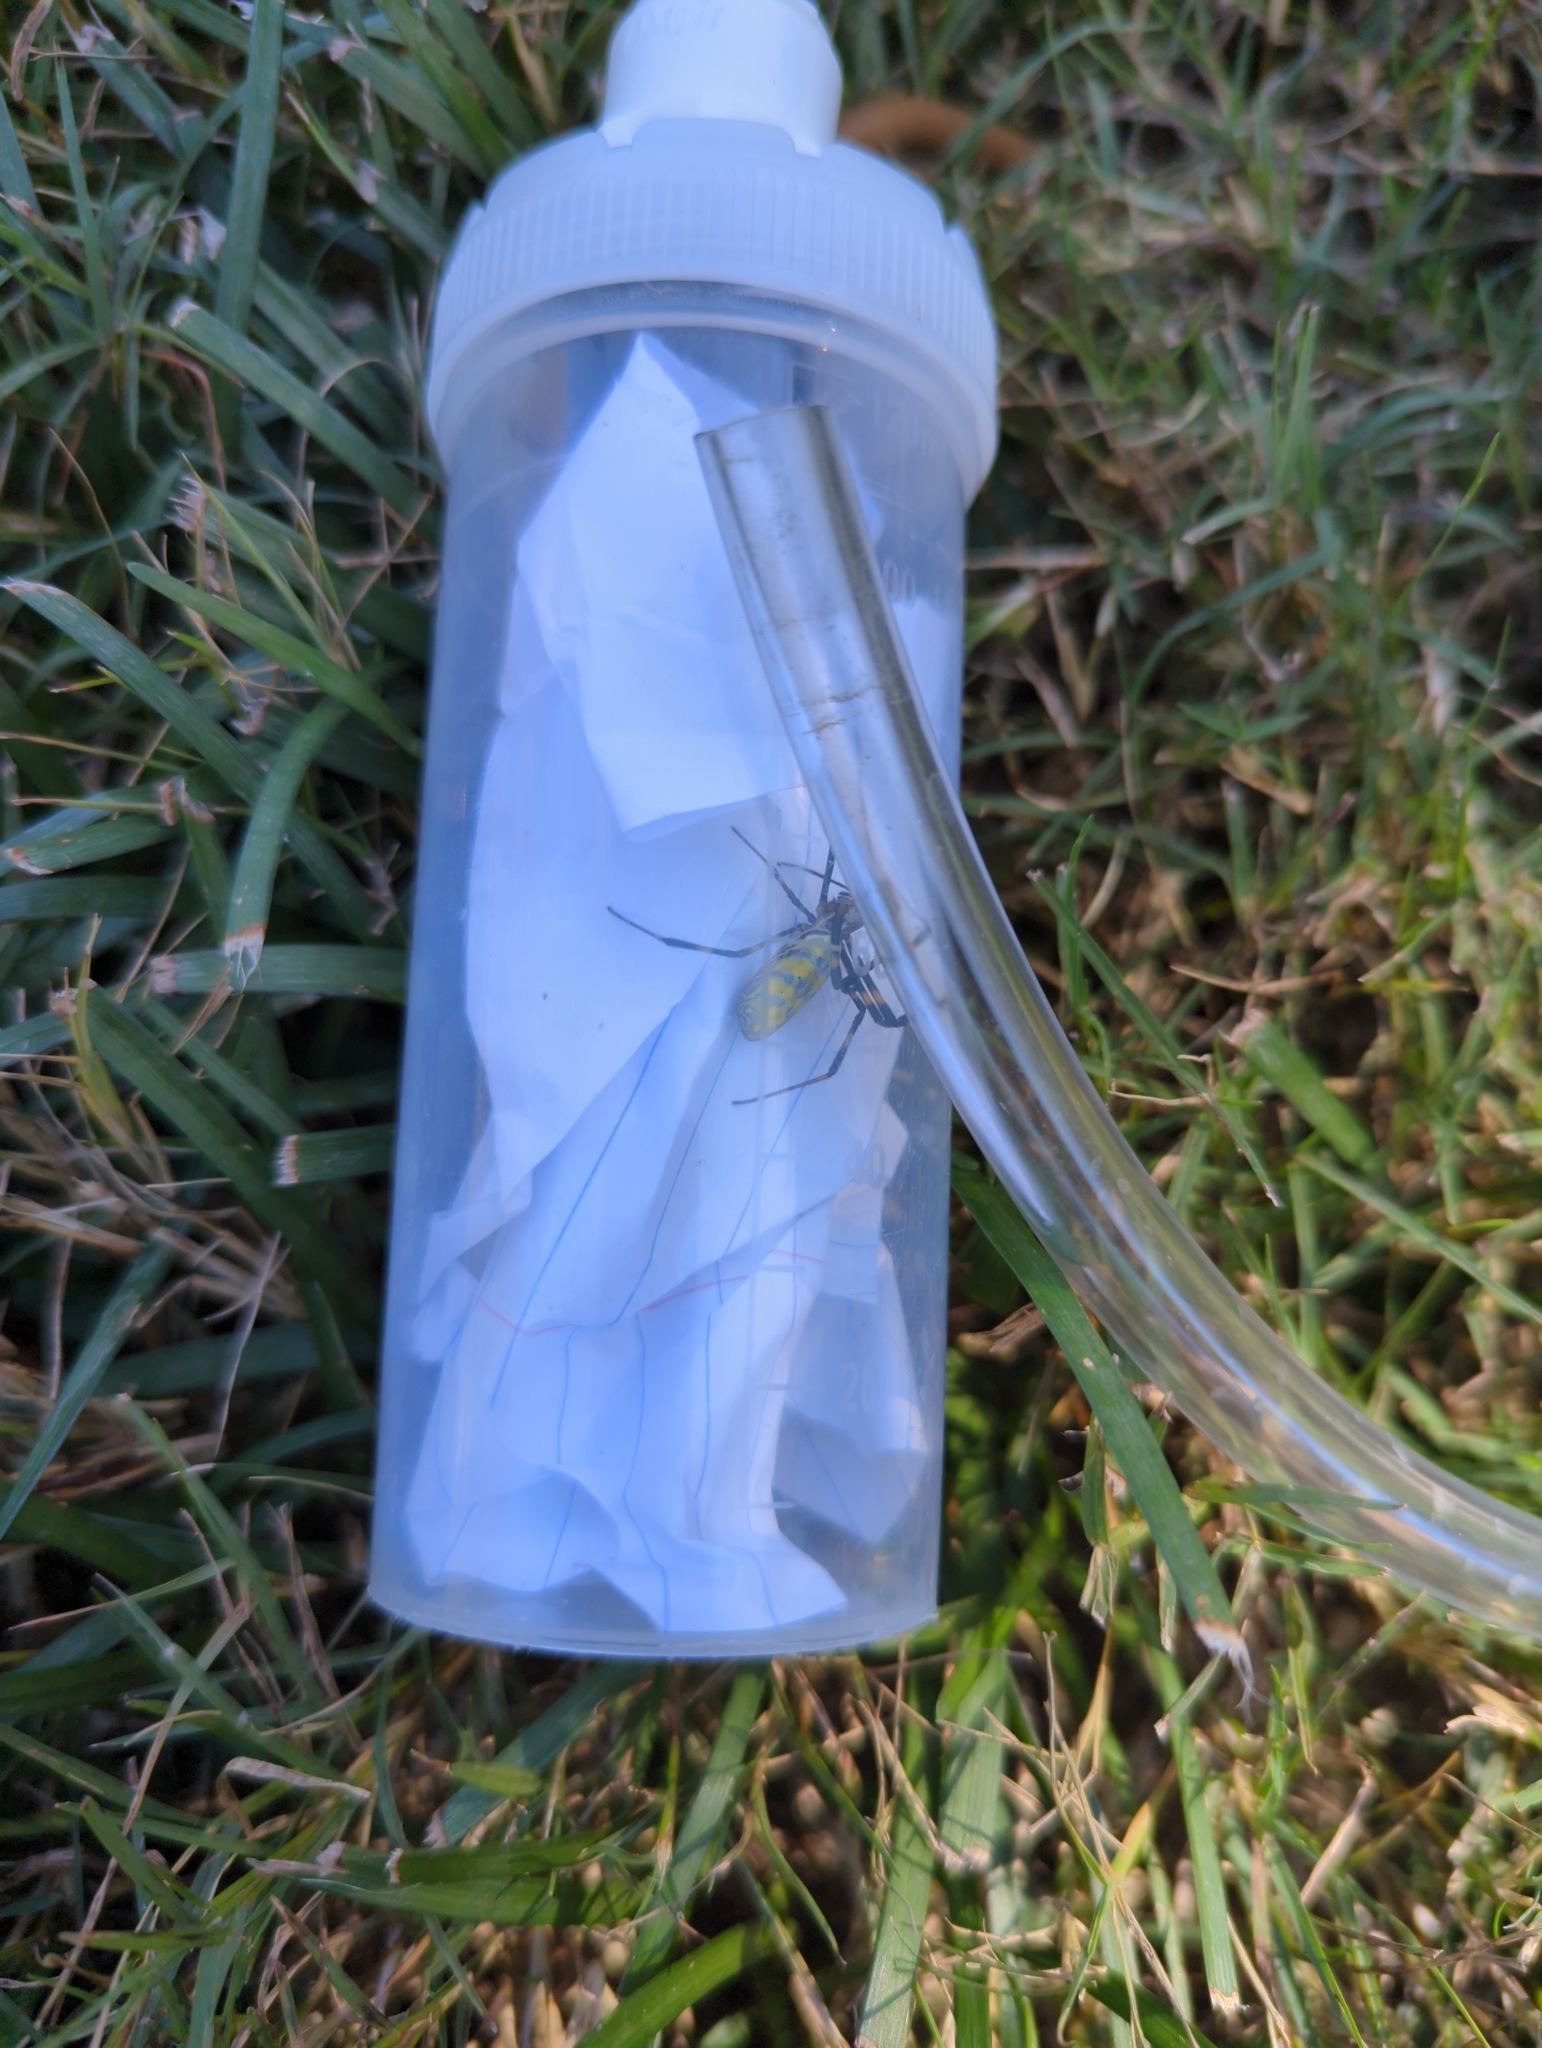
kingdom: Animalia
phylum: Arthropoda
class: Arachnida
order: Araneae
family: Araneidae
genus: Trichonephila
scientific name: Trichonephila clavata
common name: Jorō spider
